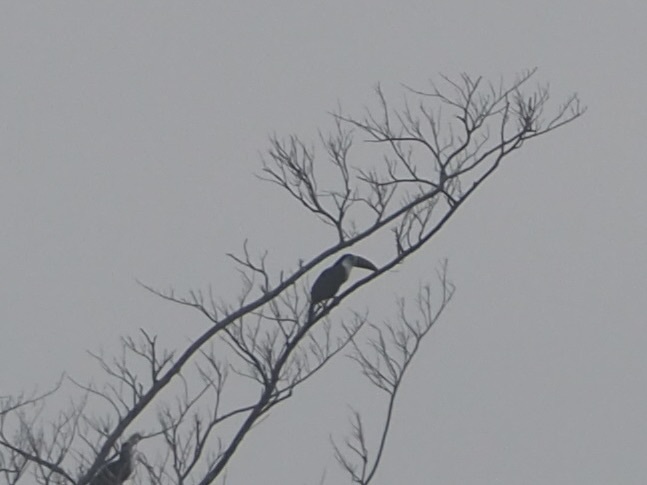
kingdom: Animalia
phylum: Chordata
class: Aves
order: Piciformes
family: Ramphastidae
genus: Ramphastos
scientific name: Ramphastos tucanus
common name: White-throated toucan
